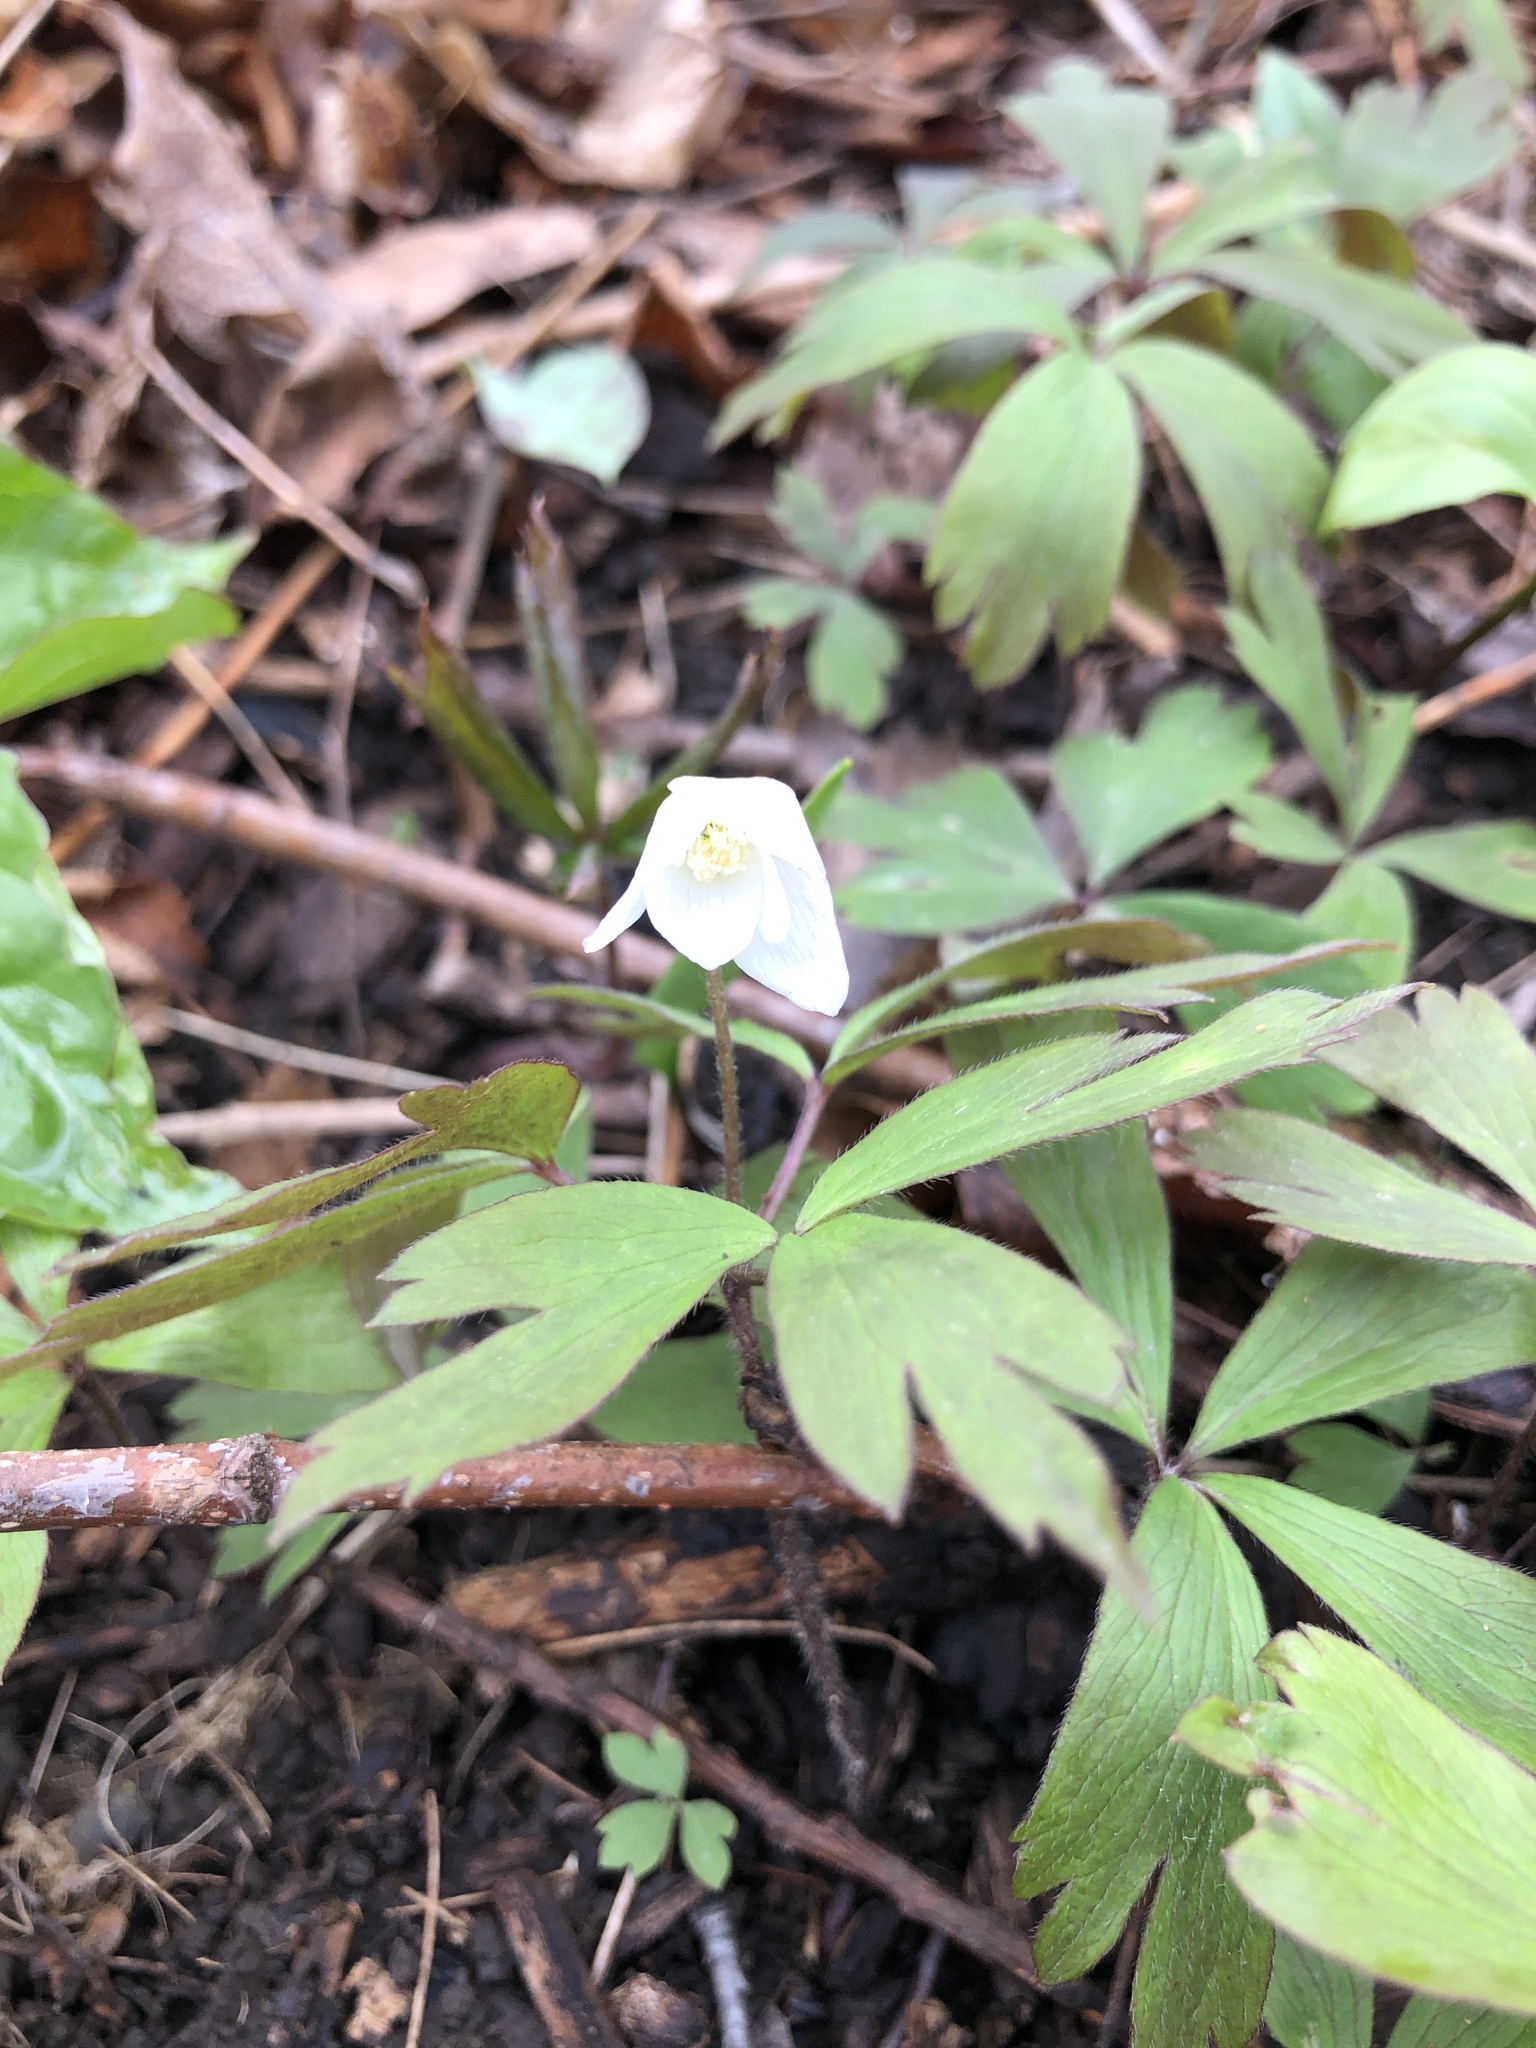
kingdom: Plantae
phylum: Tracheophyta
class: Magnoliopsida
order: Ranunculales
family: Ranunculaceae
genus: Anemone
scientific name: Anemone quinquefolia
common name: Wood anemone
